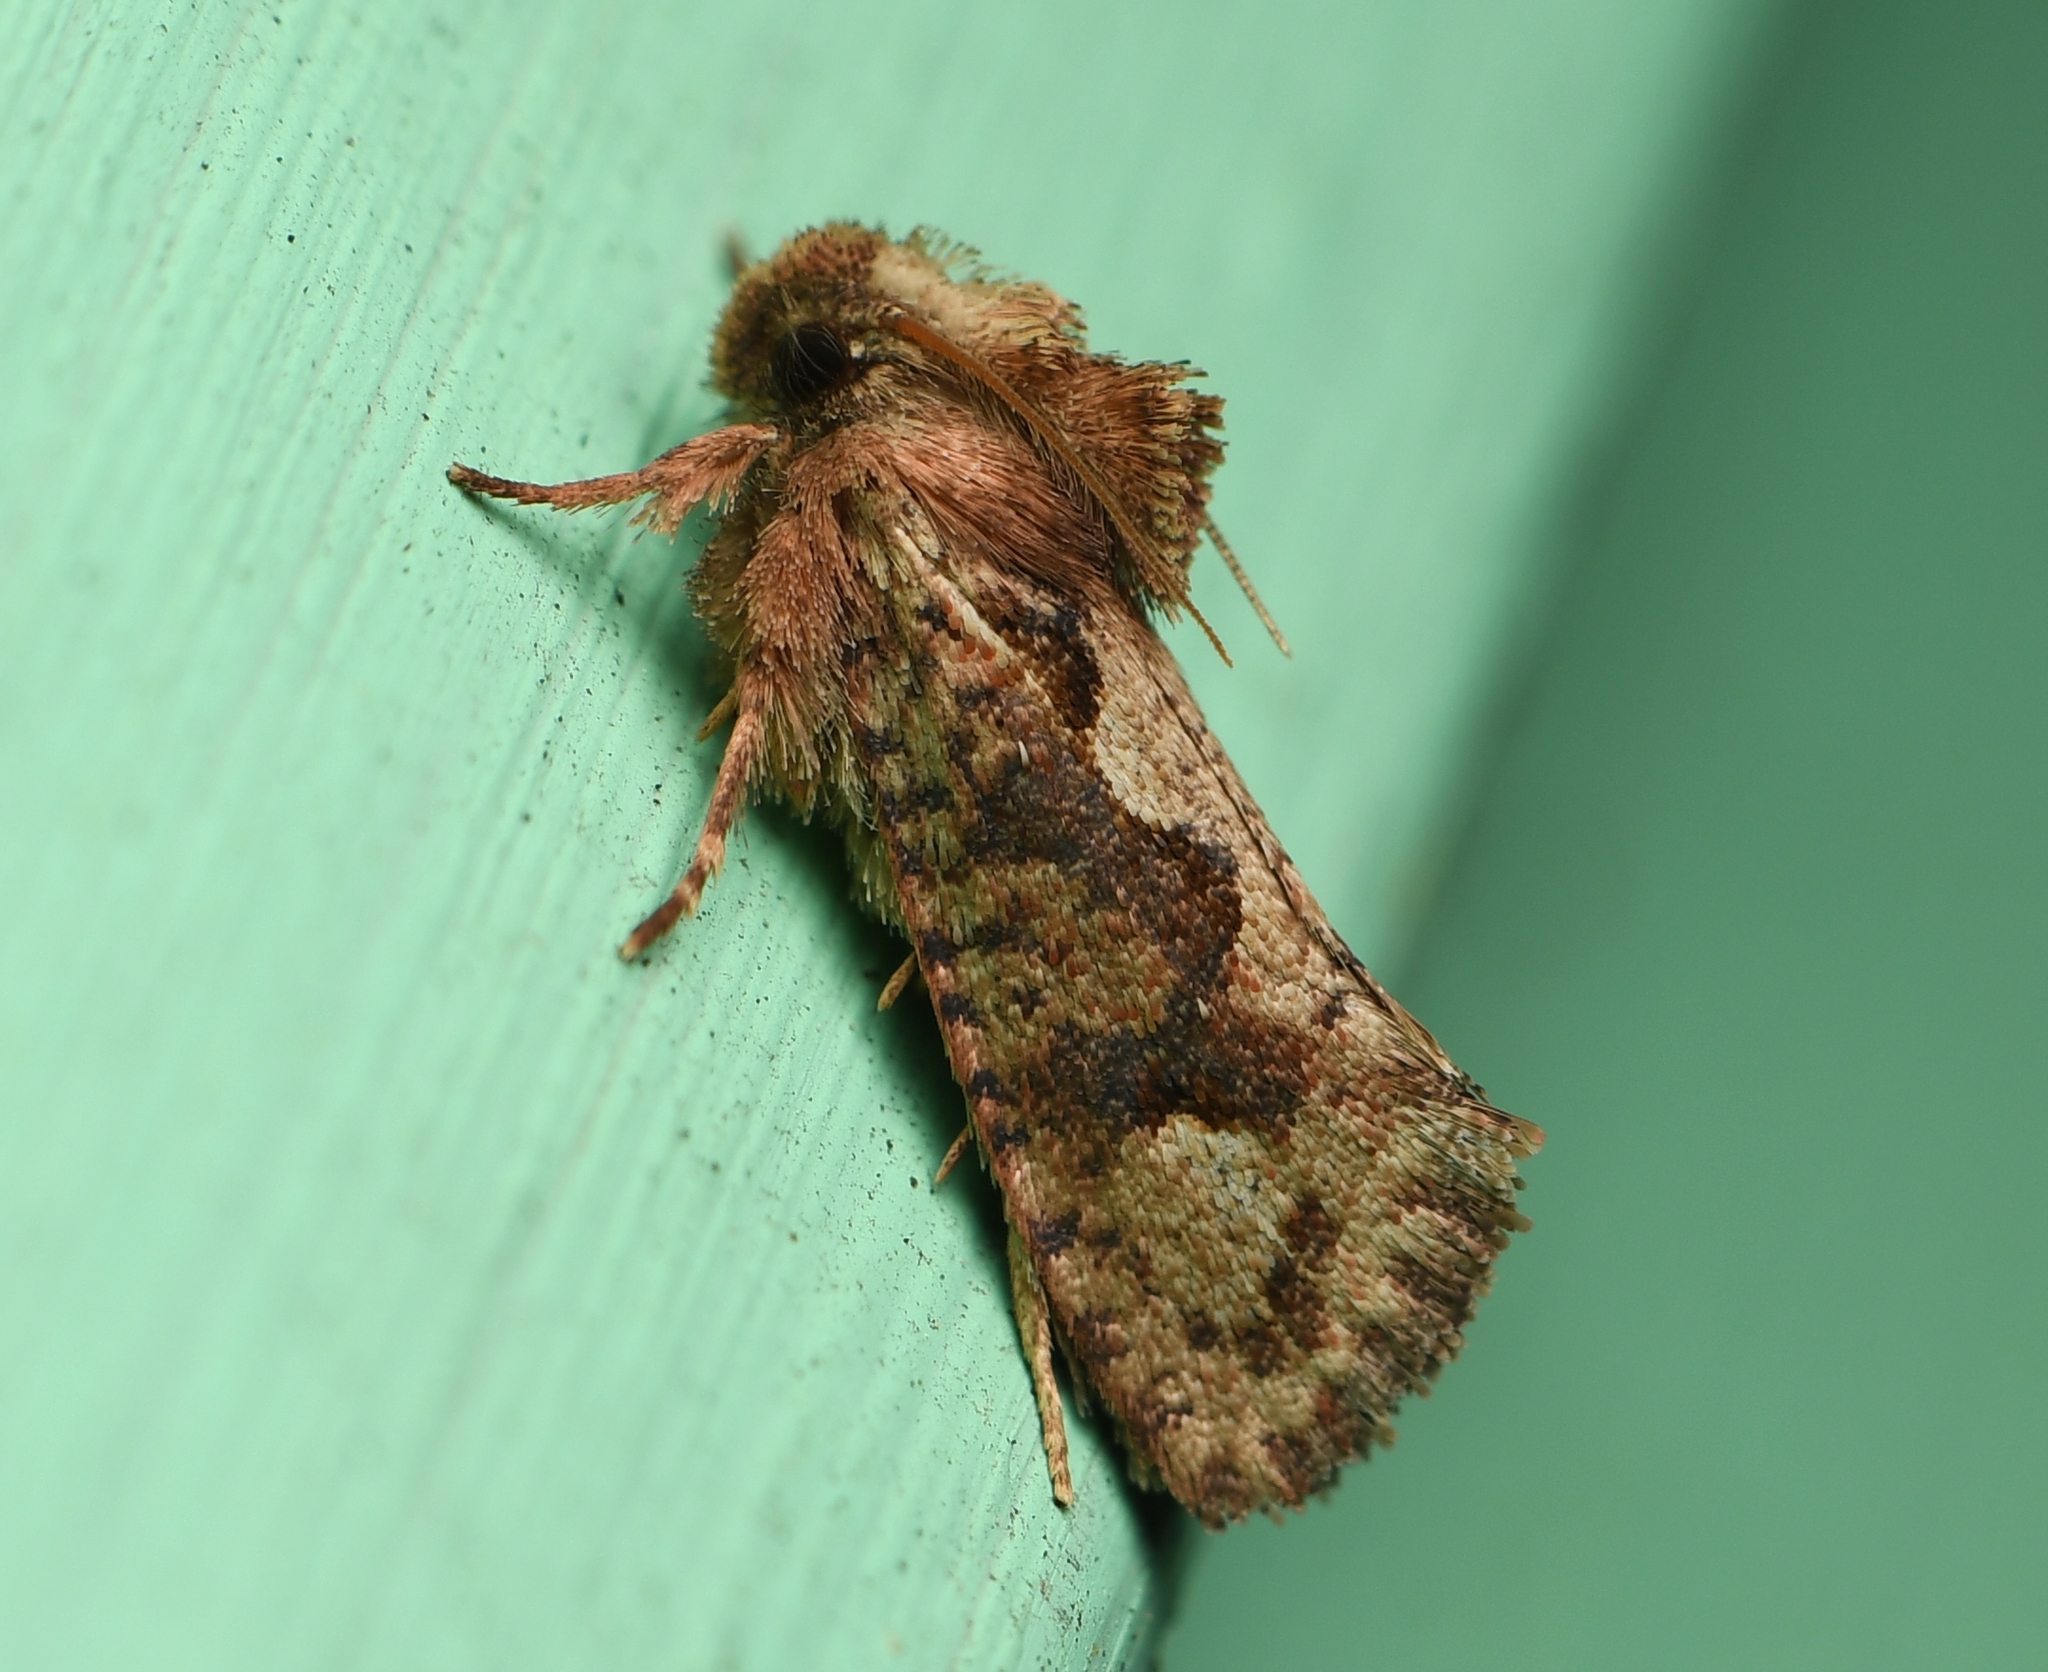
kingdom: Animalia
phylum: Arthropoda
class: Insecta
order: Lepidoptera
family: Tineidae
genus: Acrolophus
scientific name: Acrolophus walsinghami
